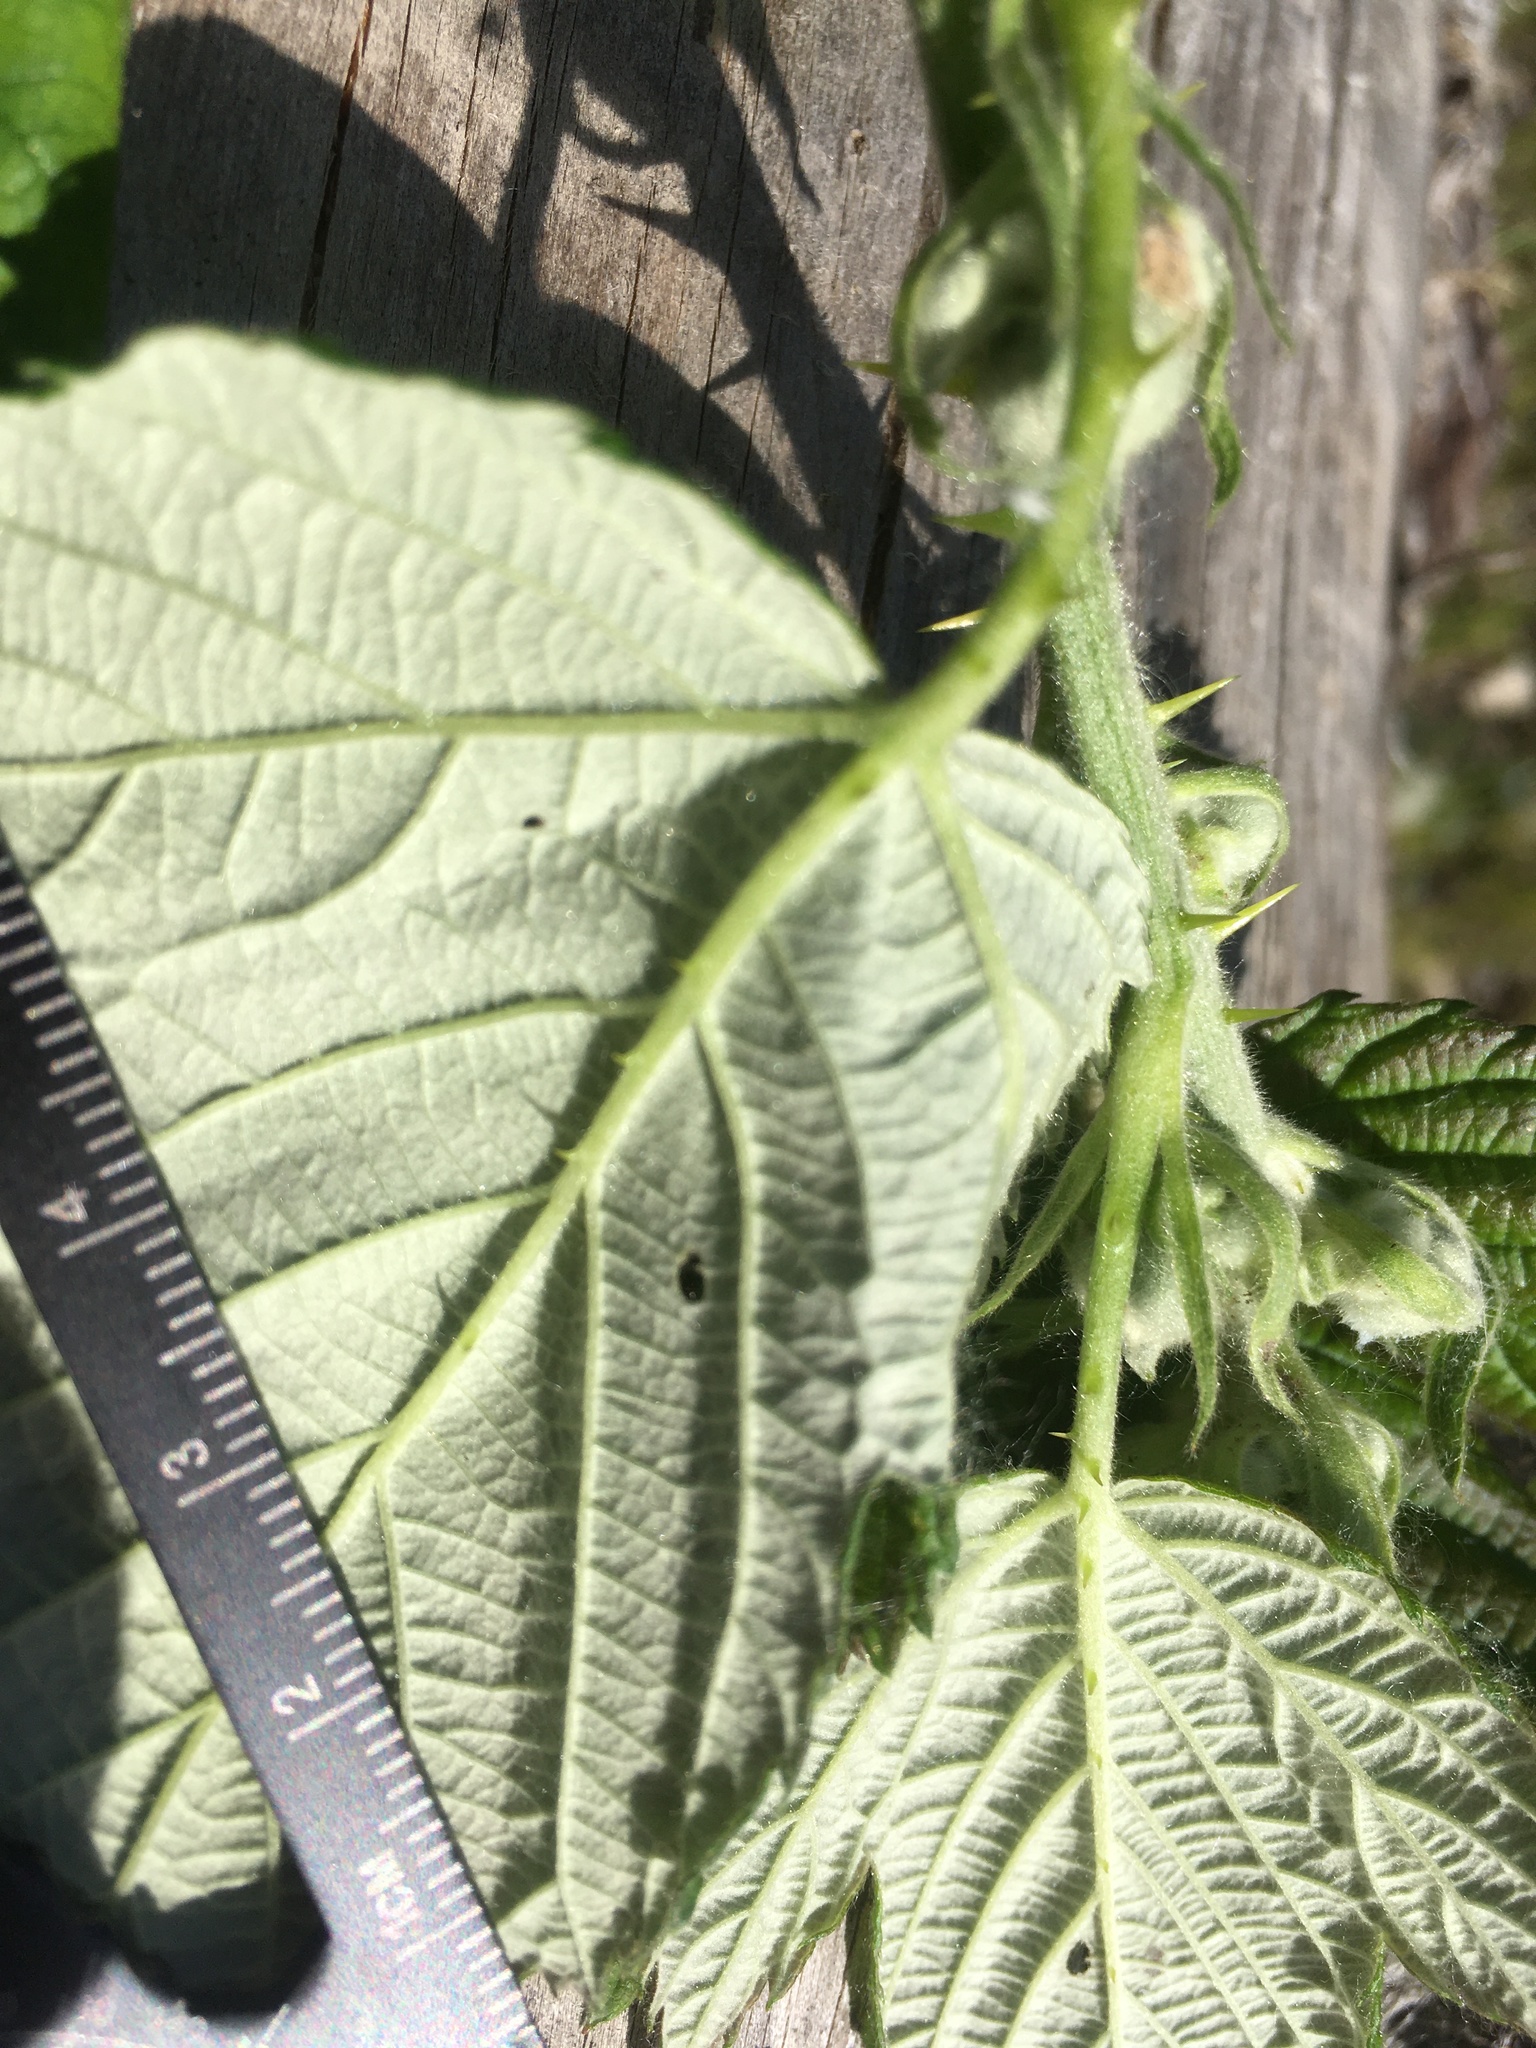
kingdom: Plantae
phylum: Tracheophyta
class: Magnoliopsida
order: Rosales
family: Rosaceae
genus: Rubus
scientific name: Rubus bifrons
